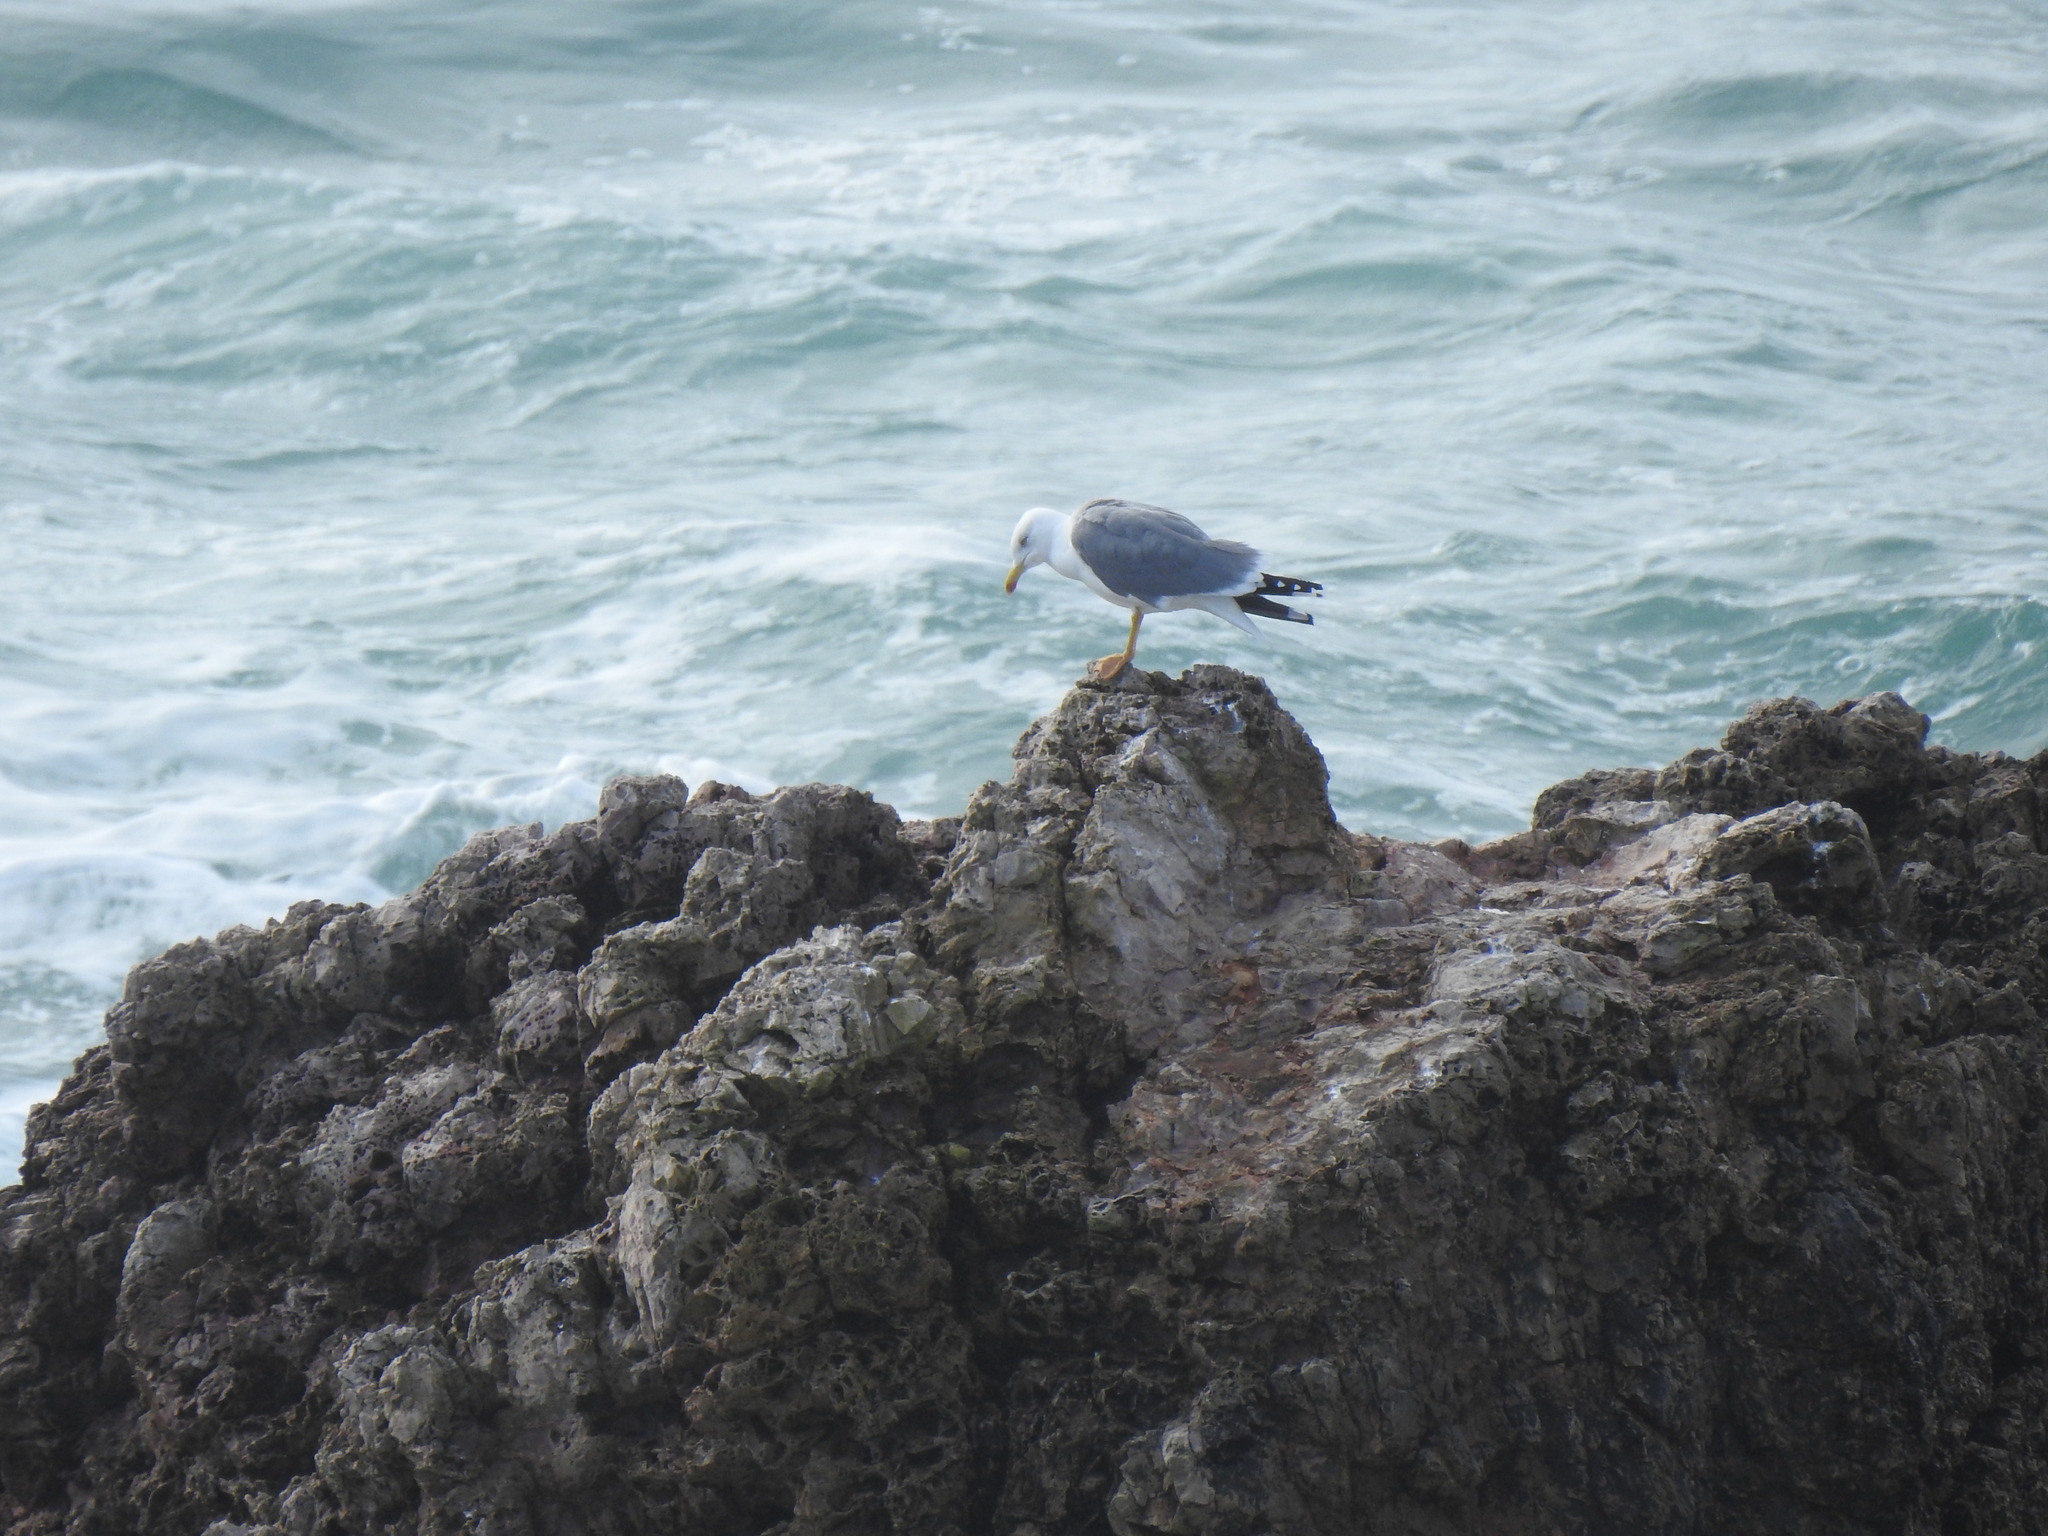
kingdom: Animalia
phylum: Chordata
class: Aves
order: Charadriiformes
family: Laridae
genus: Larus
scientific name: Larus michahellis
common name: Yellow-legged gull
